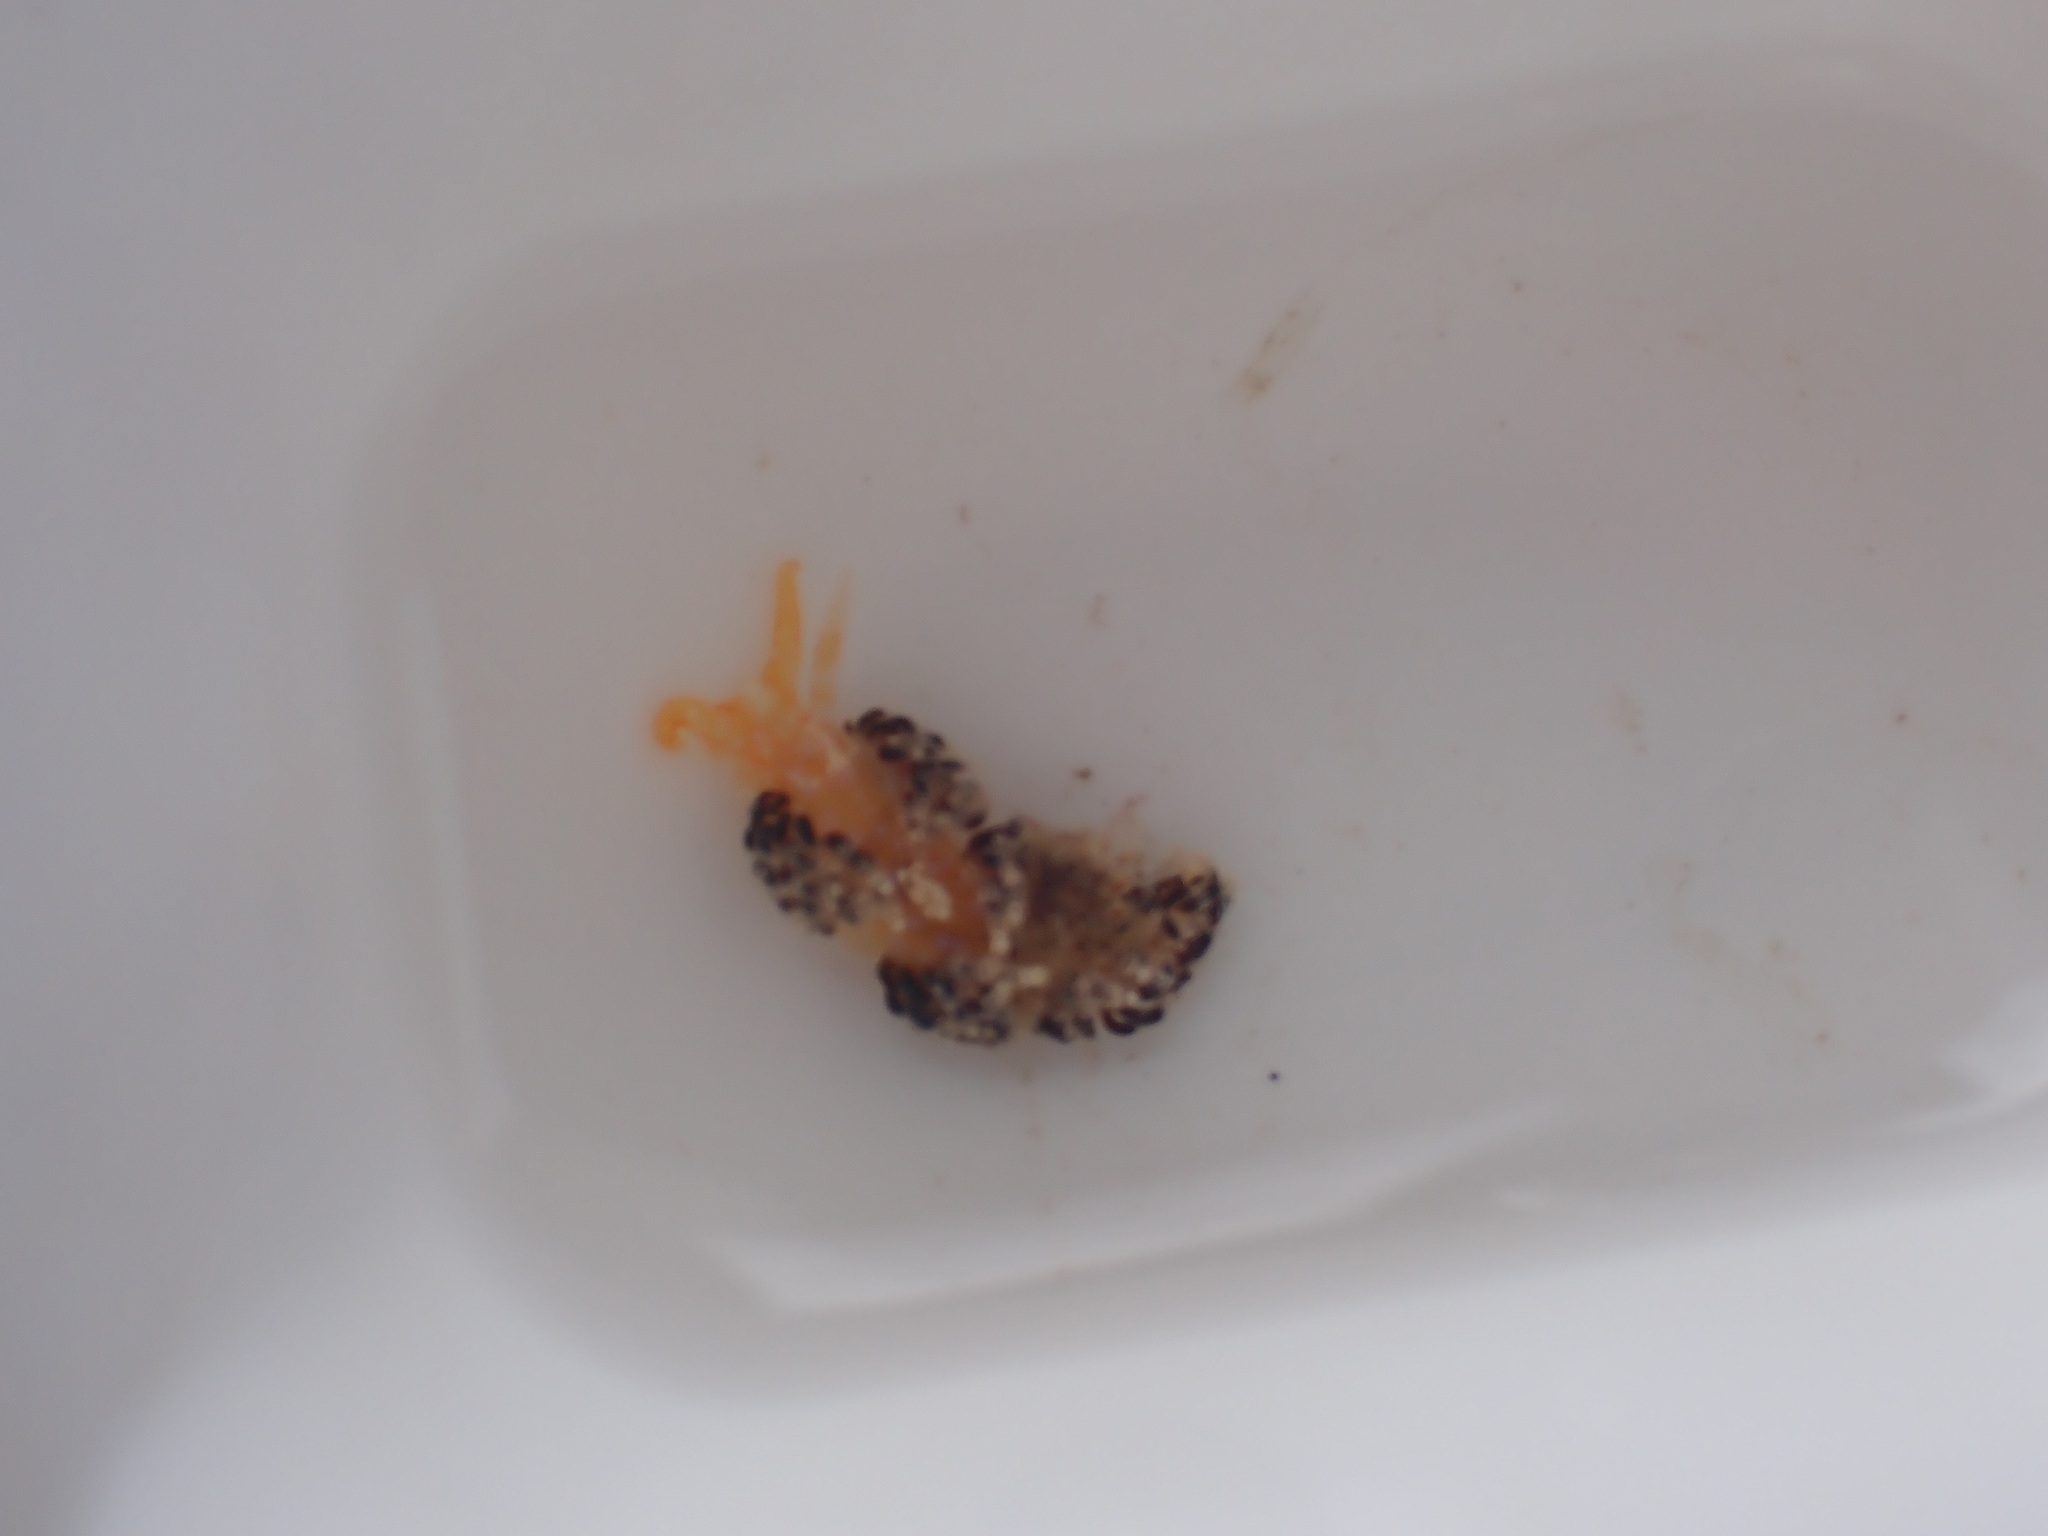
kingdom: Animalia
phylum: Mollusca
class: Gastropoda
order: Nudibranchia
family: Facelinidae
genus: Austraeolis
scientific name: Austraeolis ornata
